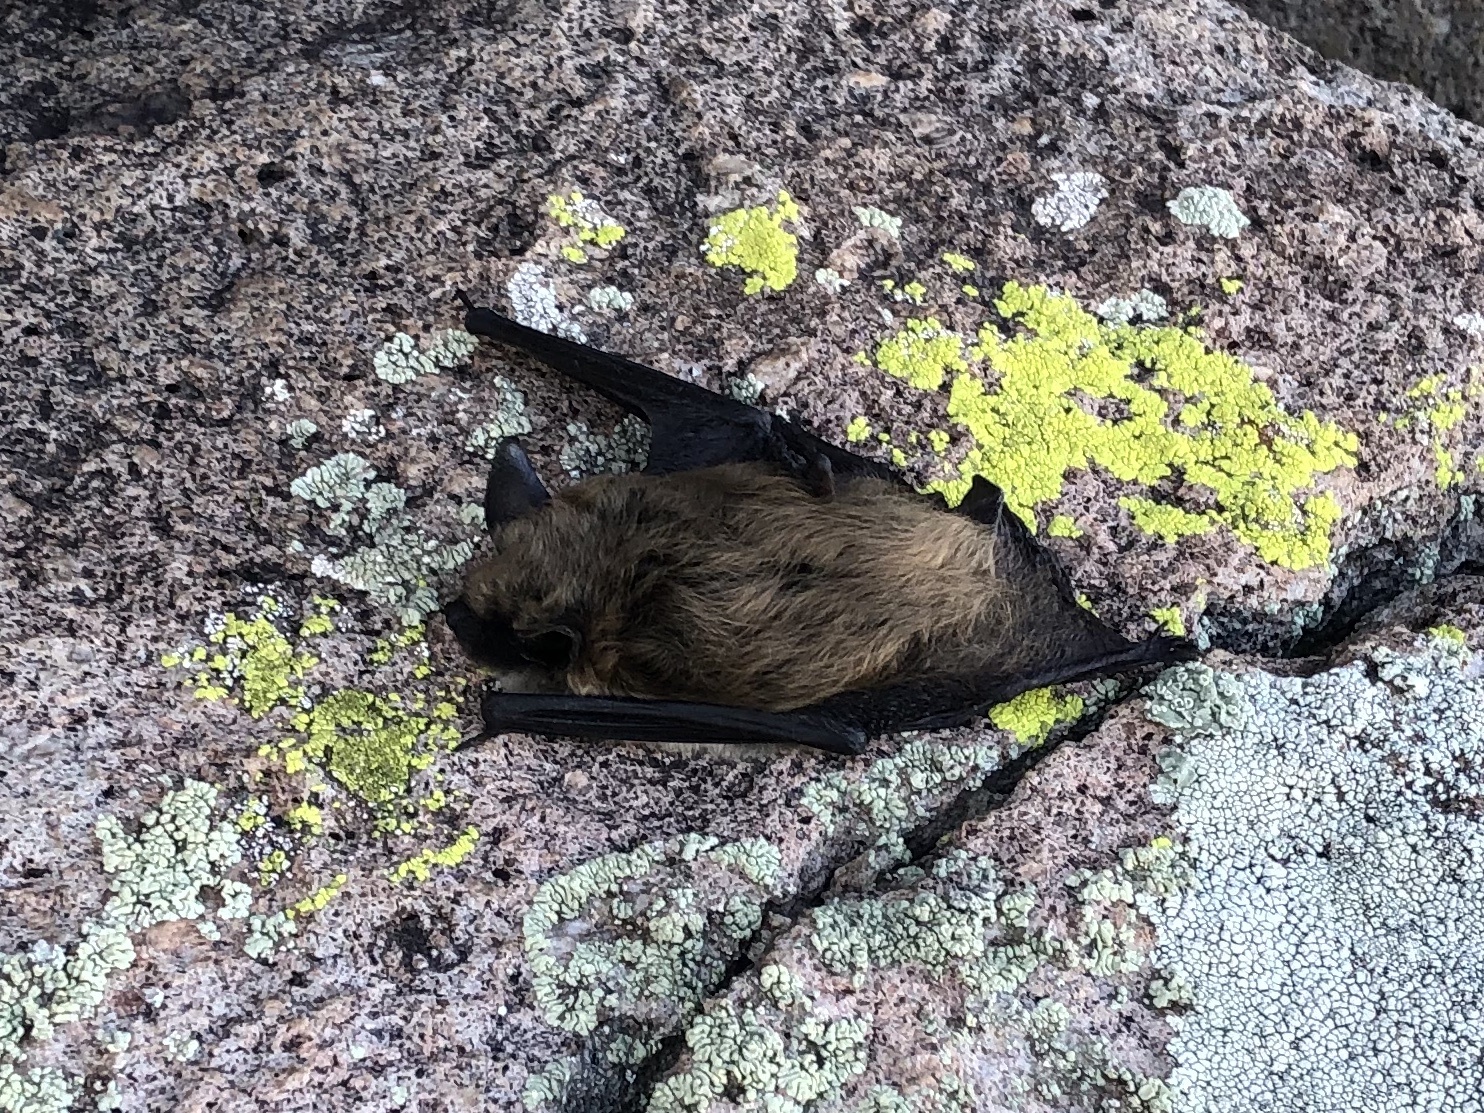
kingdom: Animalia
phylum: Chordata
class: Mammalia
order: Chiroptera
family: Vespertilionidae
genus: Eptesicus
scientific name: Eptesicus fuscus
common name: Big brown bat
